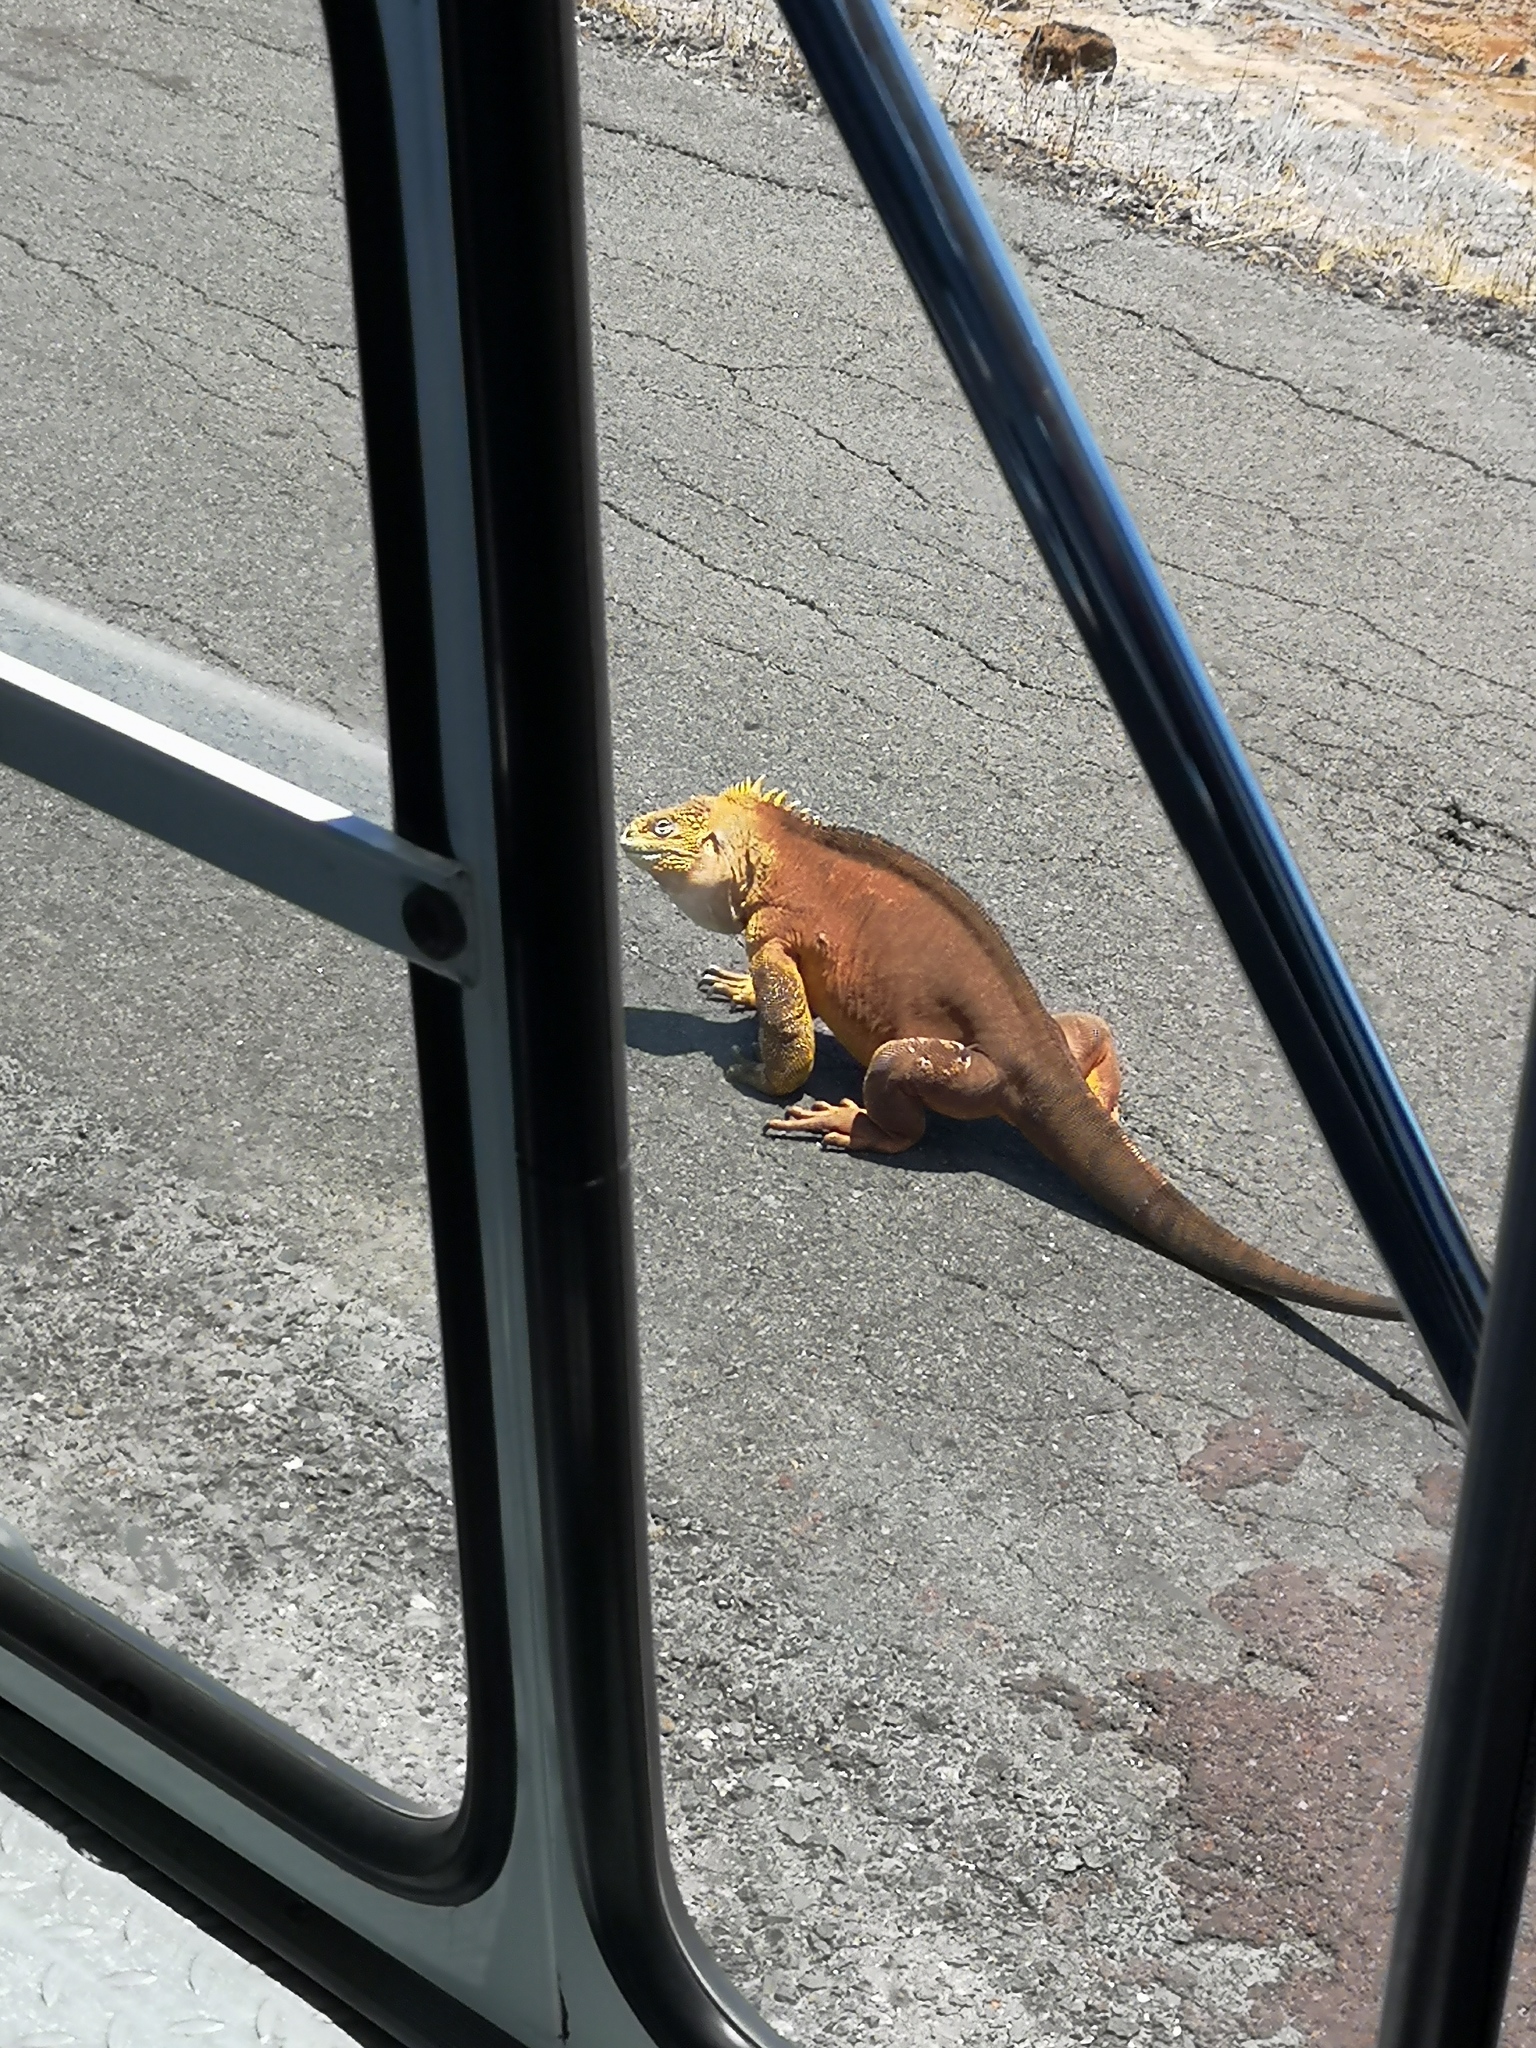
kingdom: Animalia
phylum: Chordata
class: Squamata
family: Iguanidae
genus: Conolophus
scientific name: Conolophus subcristatus
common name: Galapagos land iguana
